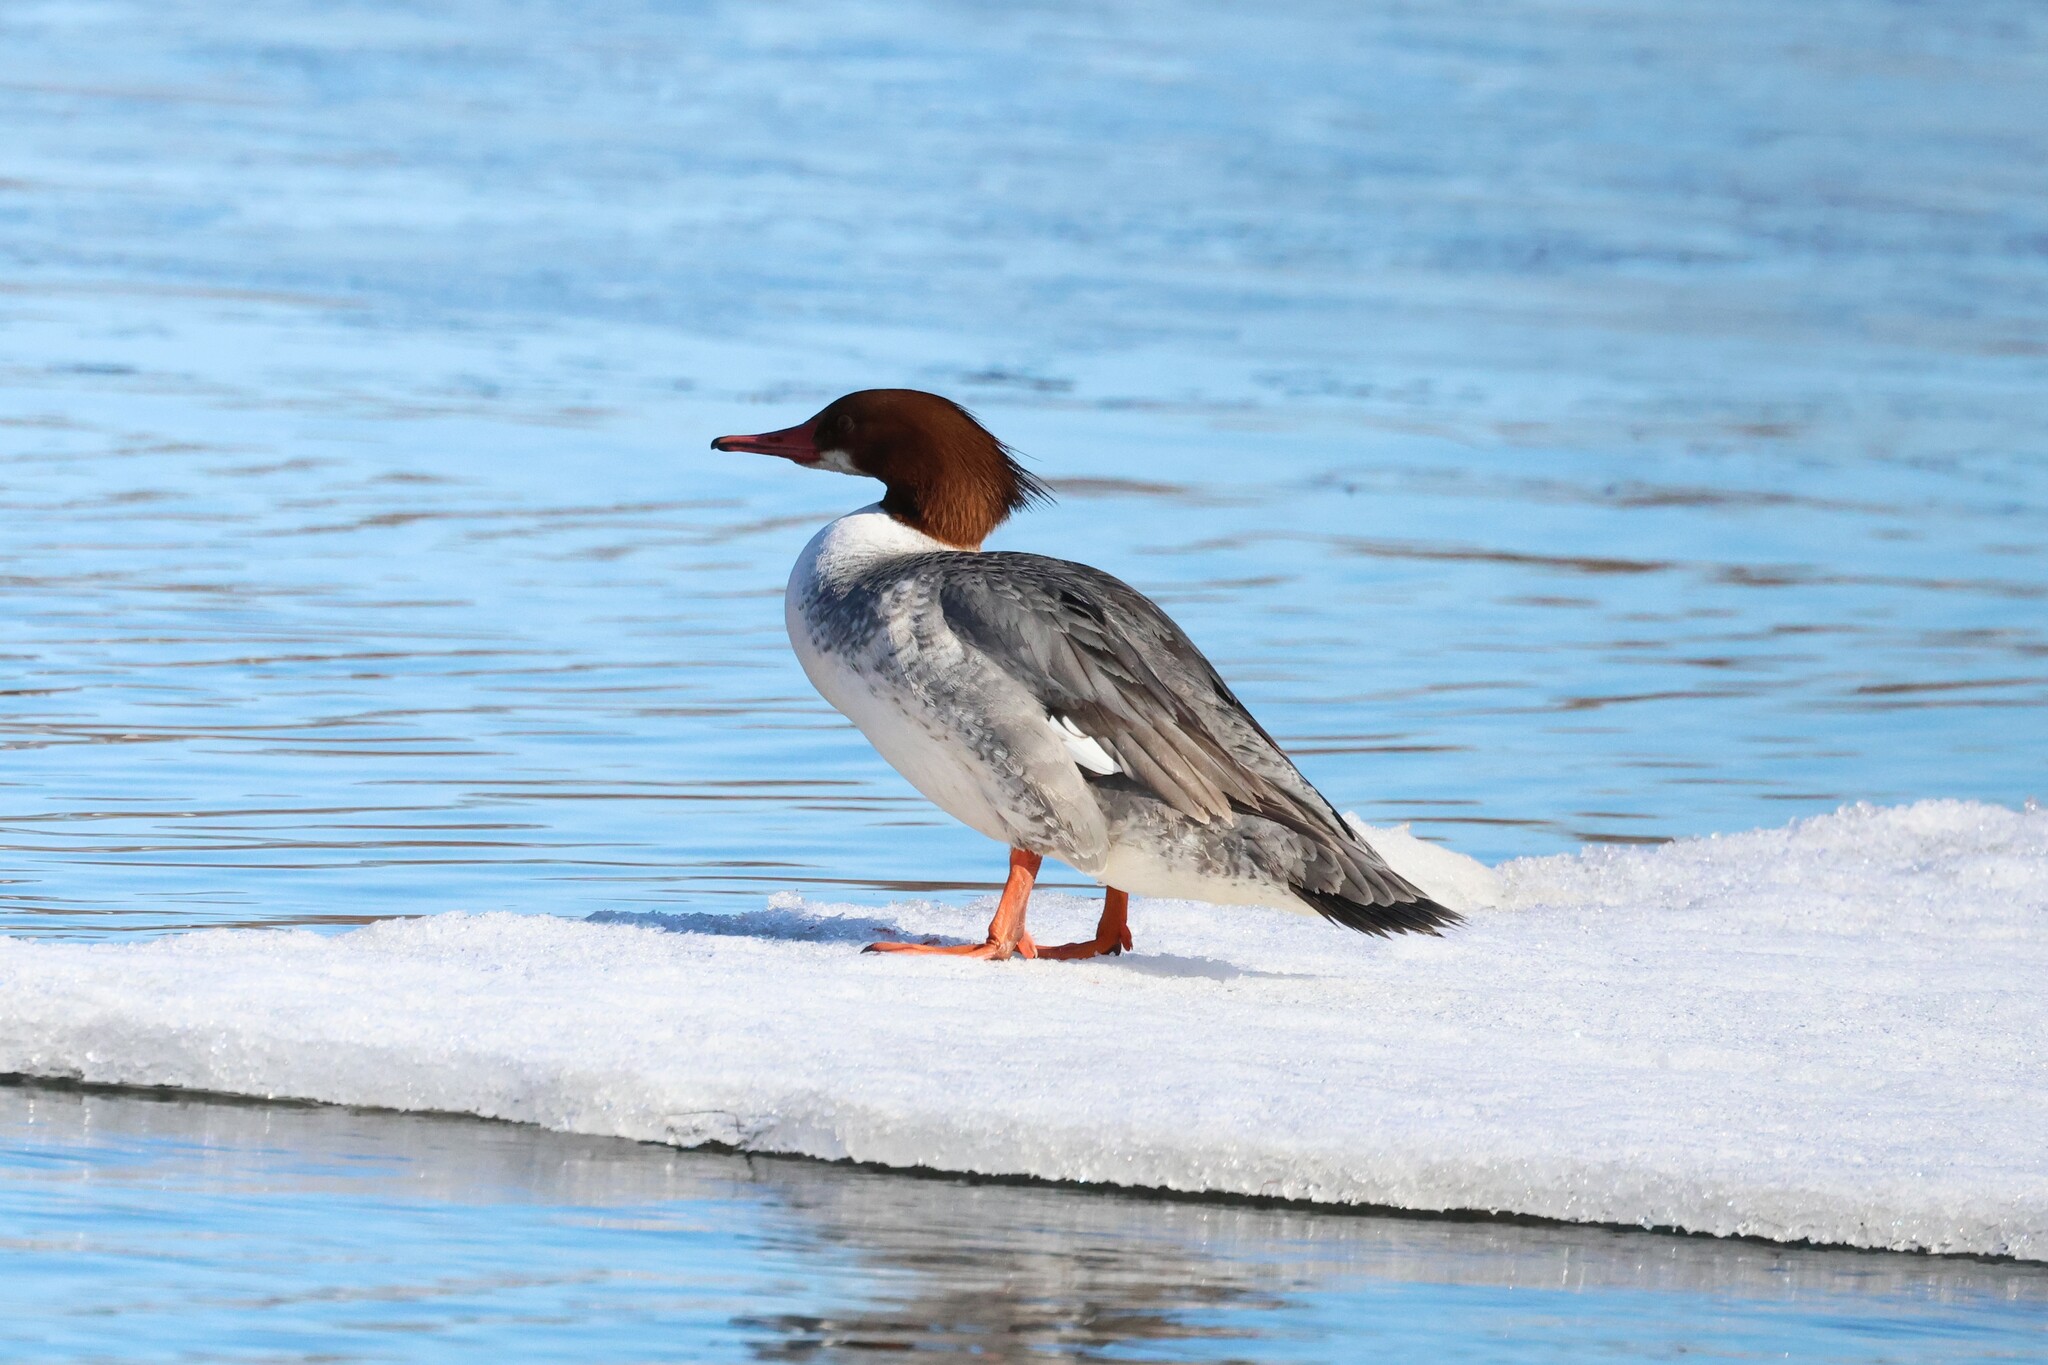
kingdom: Animalia
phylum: Chordata
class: Aves
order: Anseriformes
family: Anatidae
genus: Mergus
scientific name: Mergus merganser
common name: Common merganser
